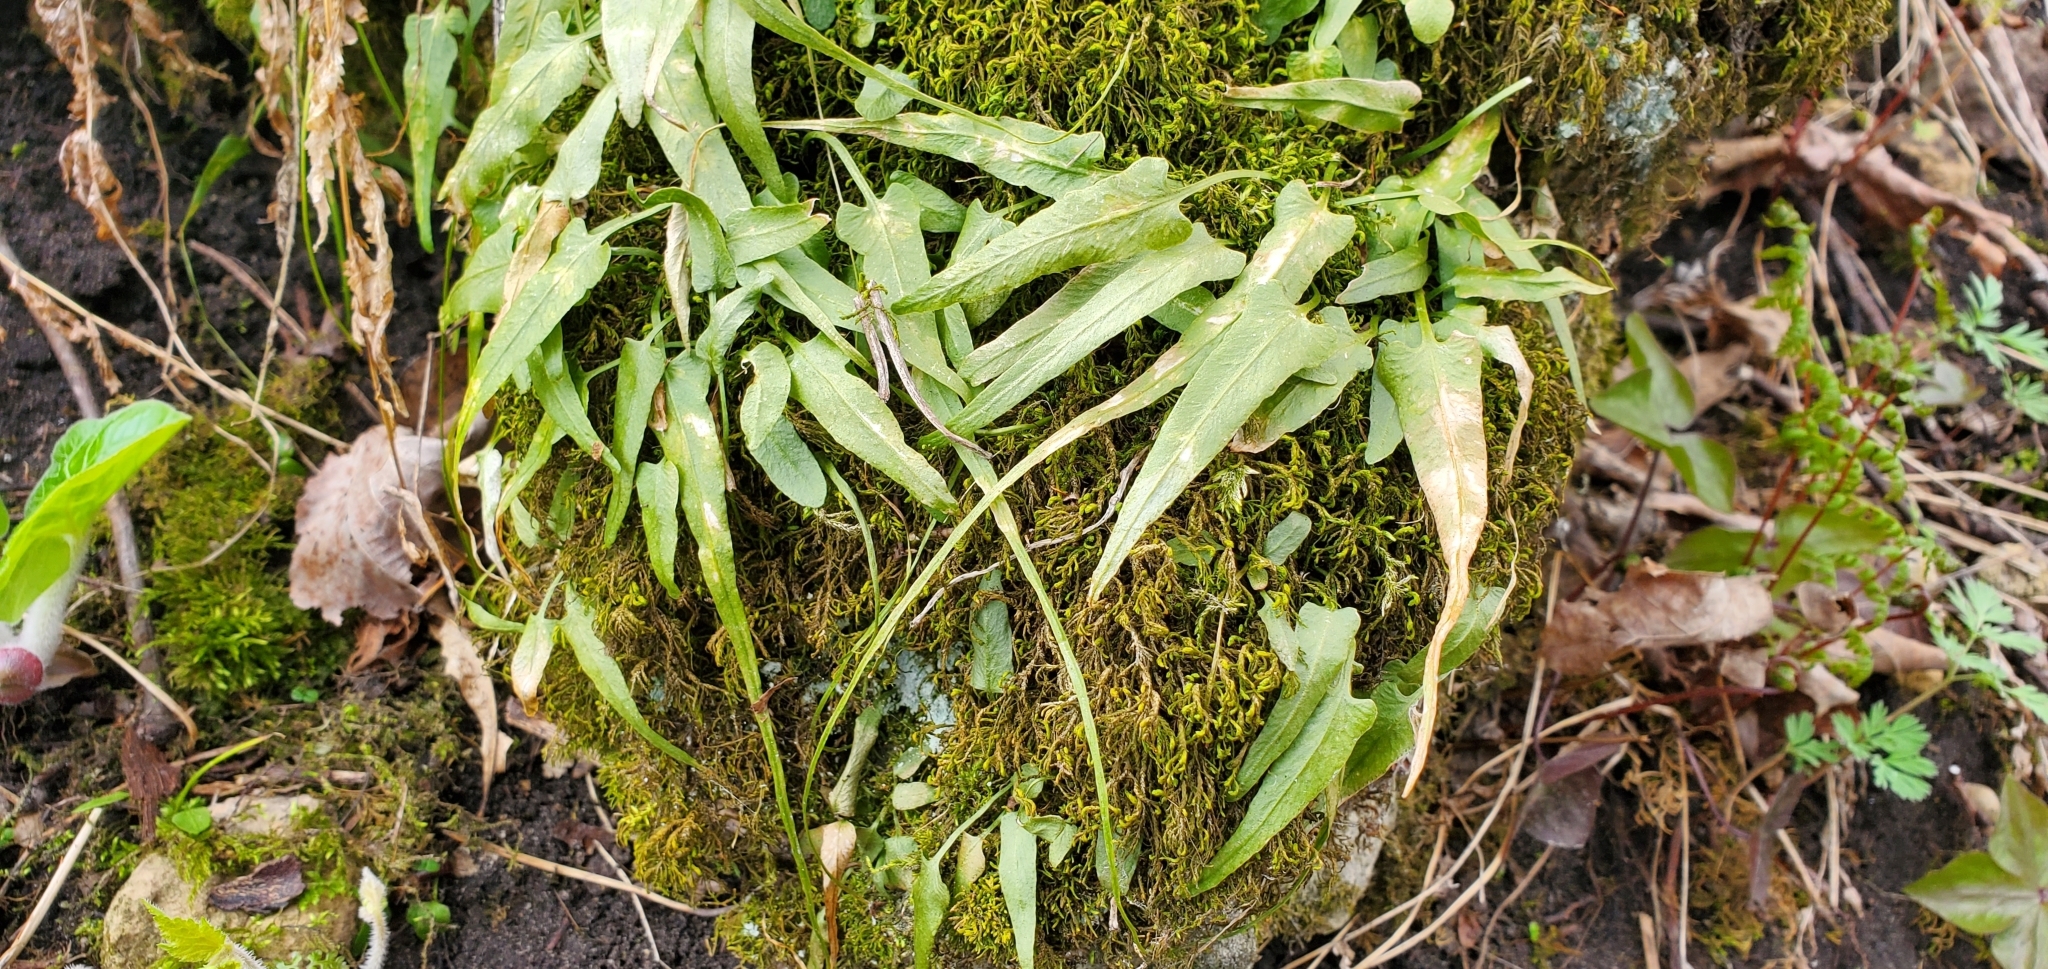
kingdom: Plantae
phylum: Tracheophyta
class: Polypodiopsida
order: Polypodiales
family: Aspleniaceae
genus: Asplenium
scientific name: Asplenium rhizophyllum
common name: Walking fern
